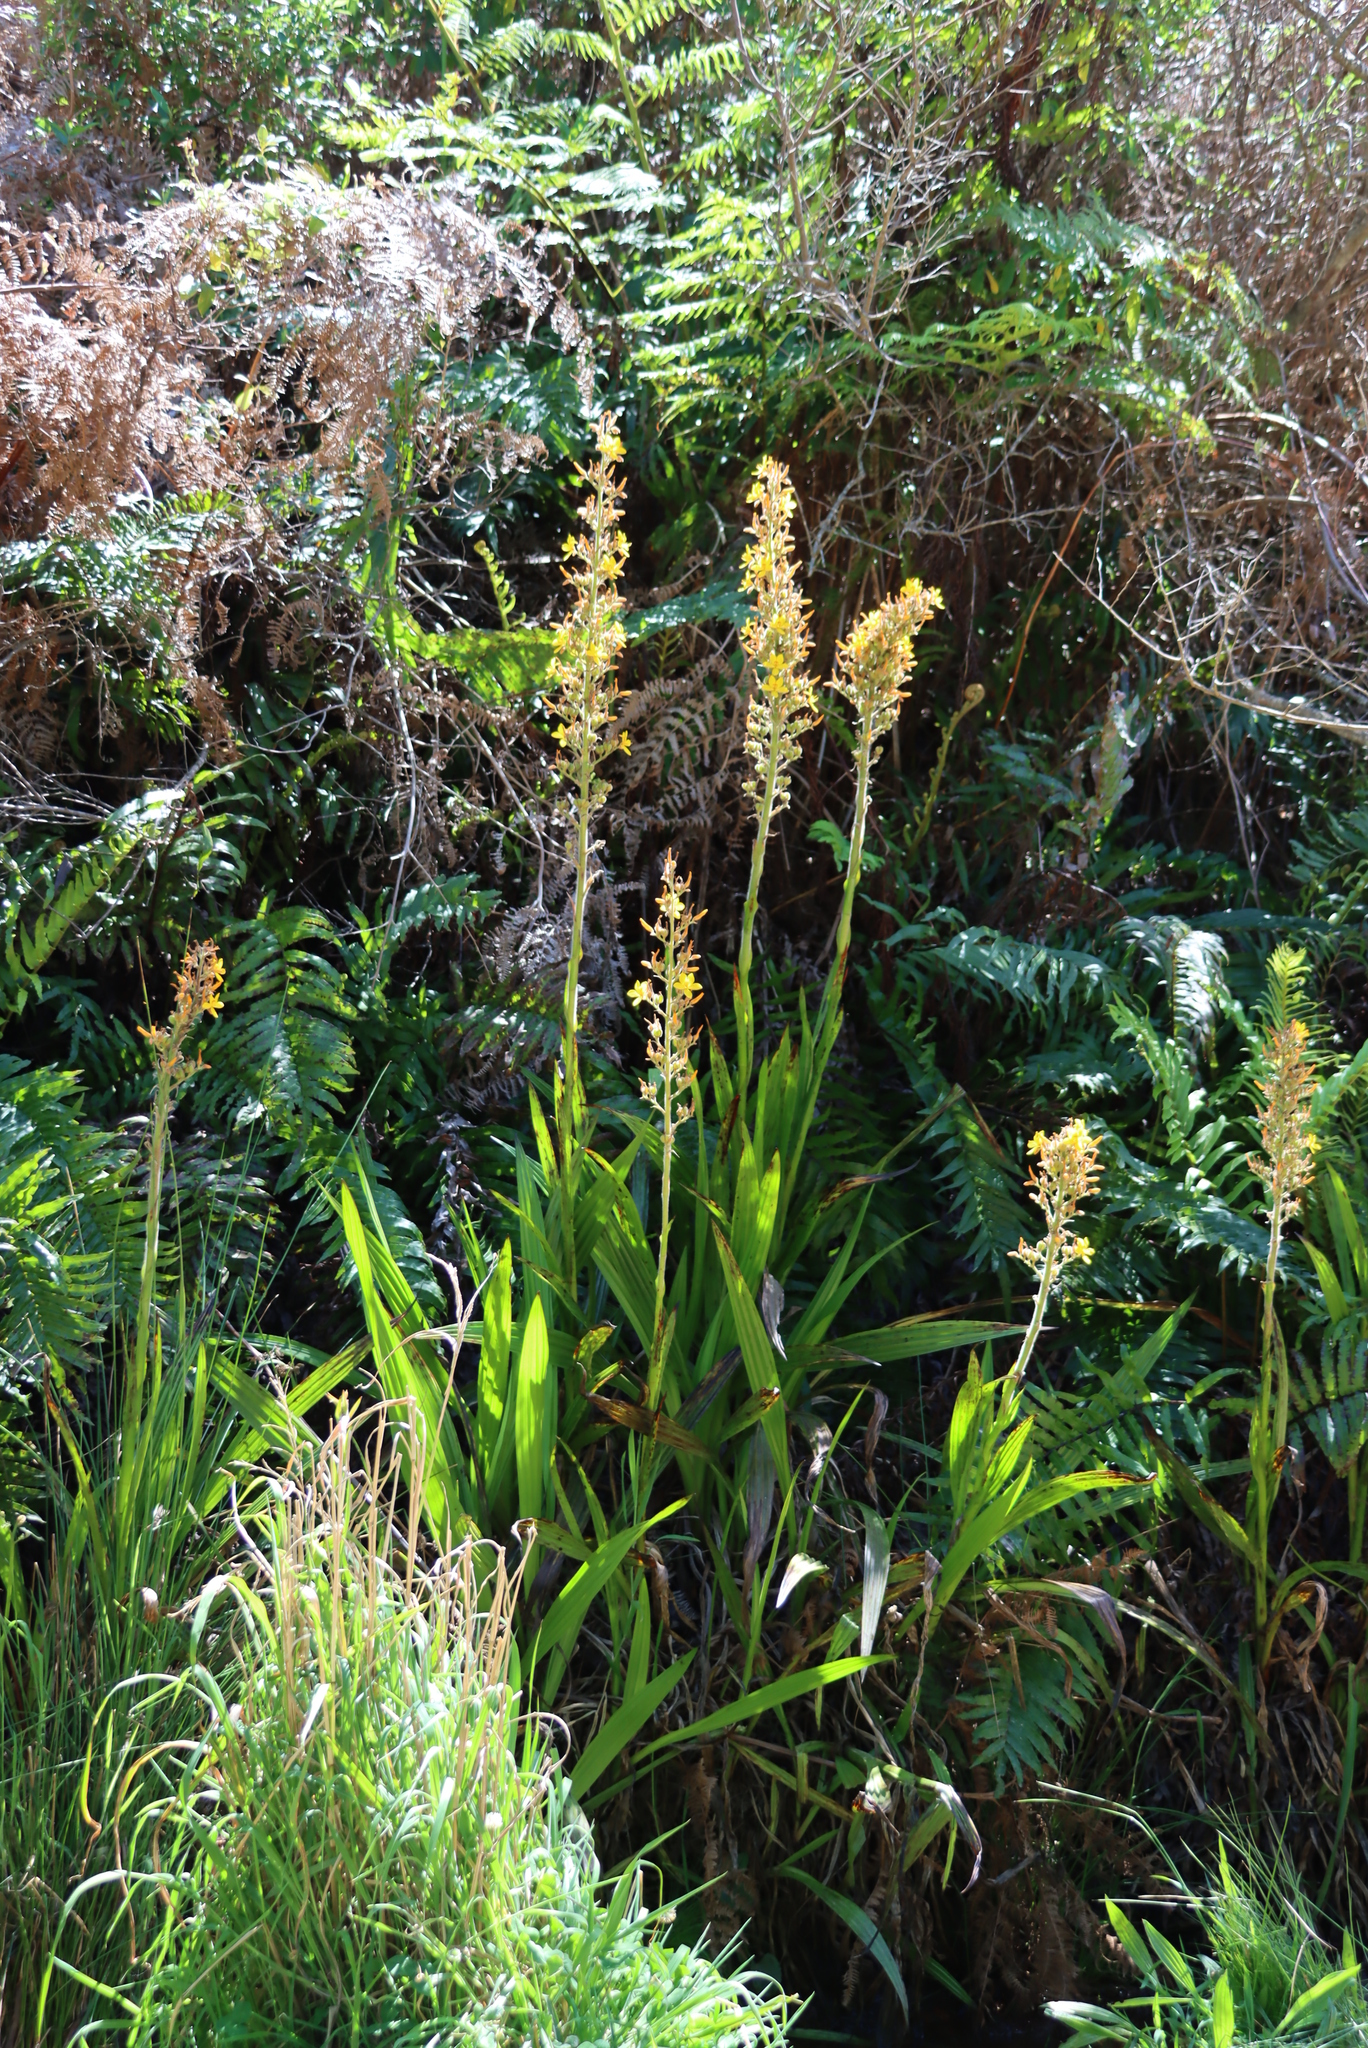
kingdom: Plantae
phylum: Tracheophyta
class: Liliopsida
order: Commelinales
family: Haemodoraceae
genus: Wachendorfia
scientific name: Wachendorfia thyrsiflora
